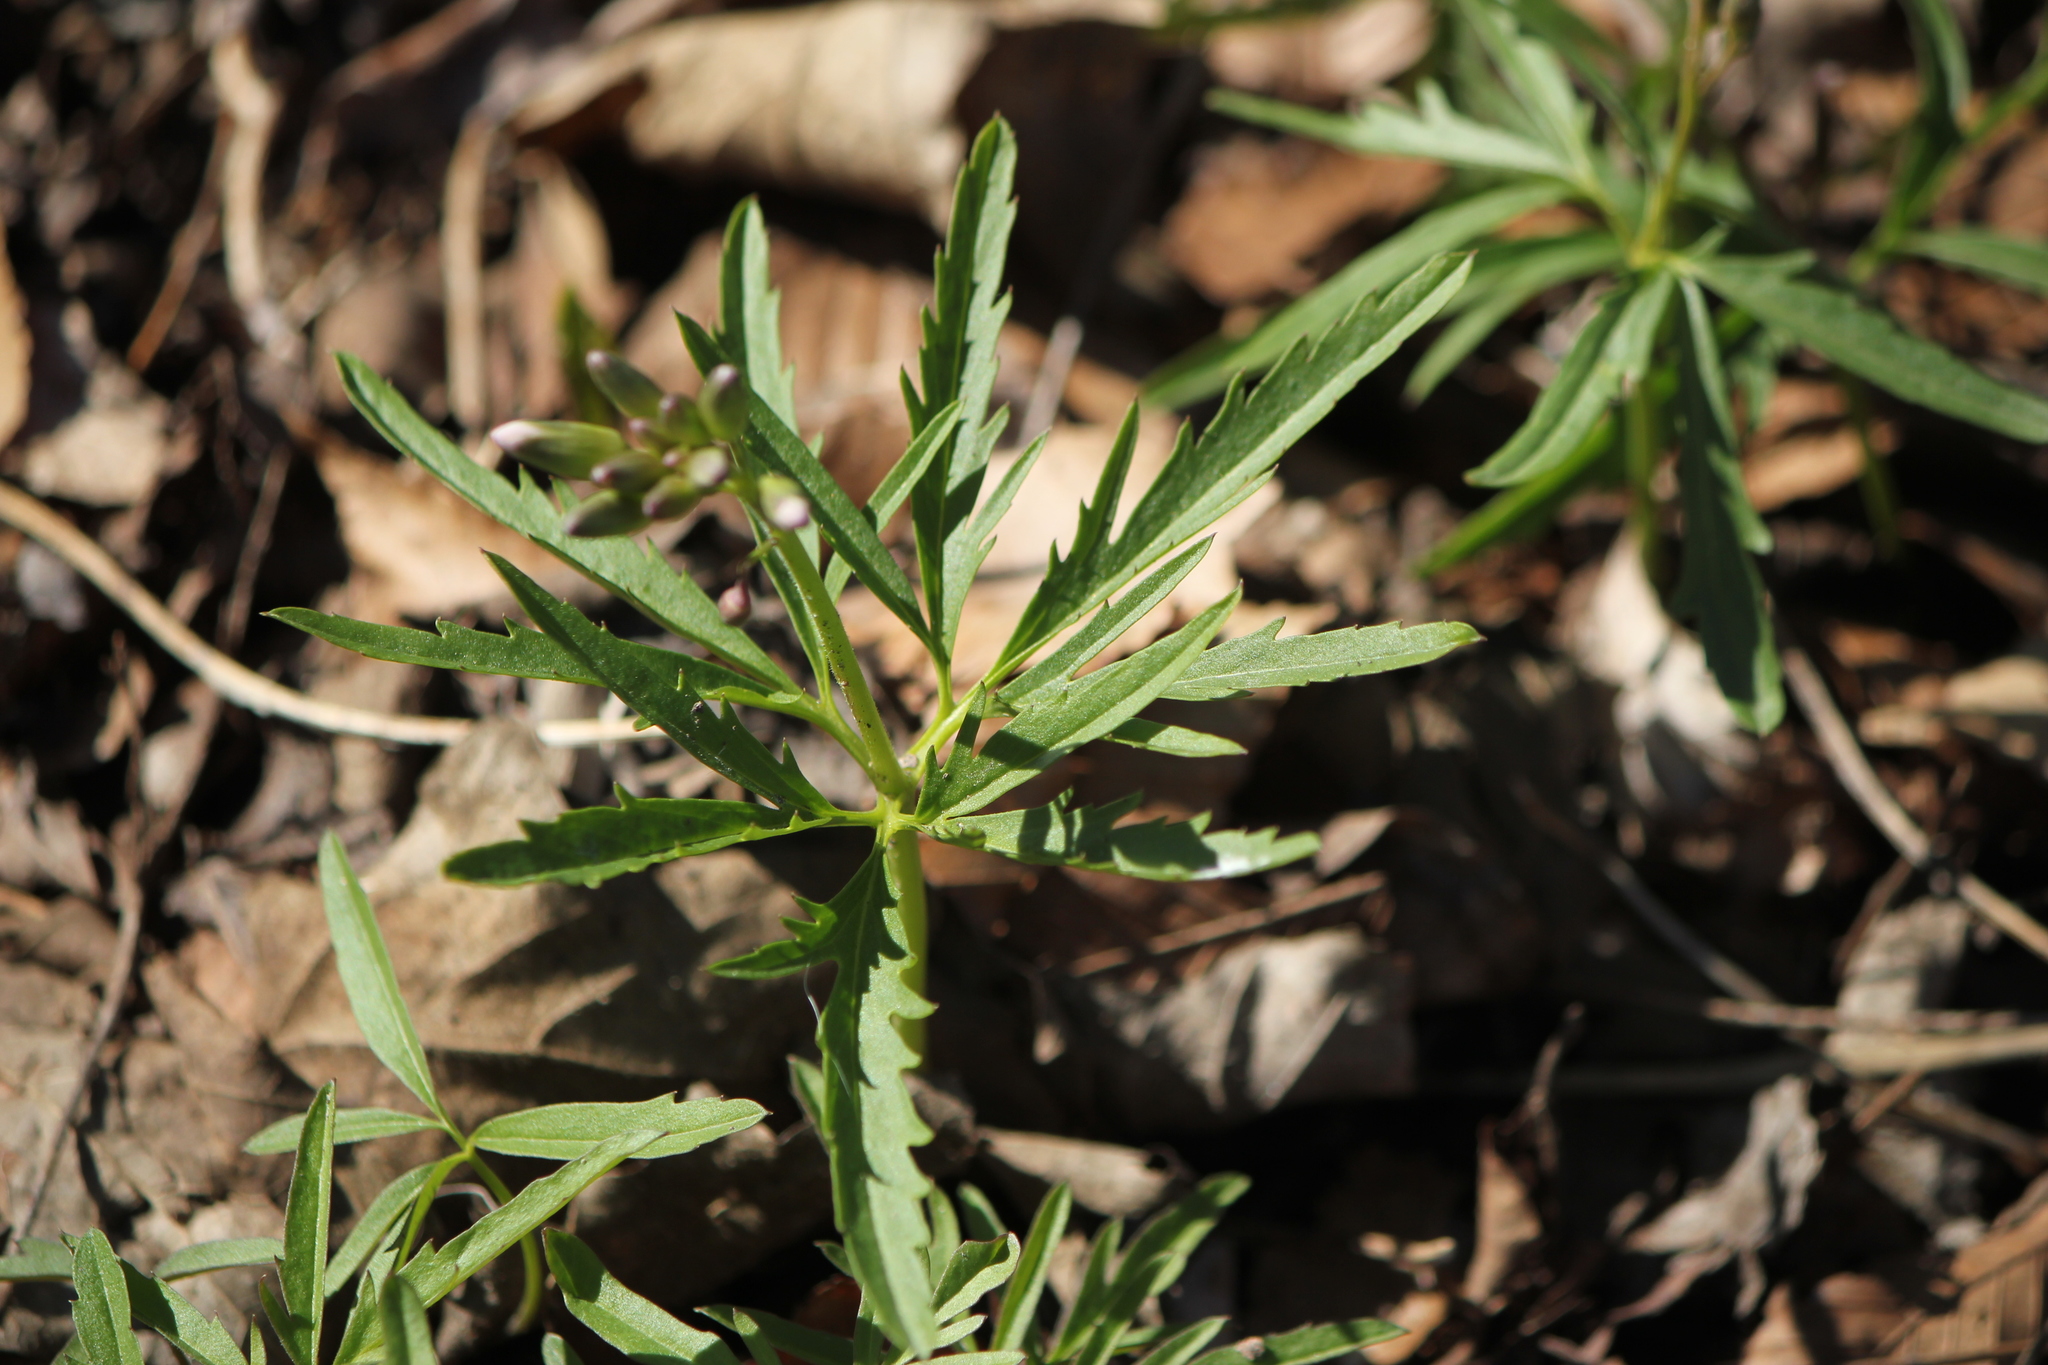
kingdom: Plantae
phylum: Tracheophyta
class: Magnoliopsida
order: Brassicales
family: Brassicaceae
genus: Cardamine
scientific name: Cardamine concatenata
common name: Cut-leaf toothcup
